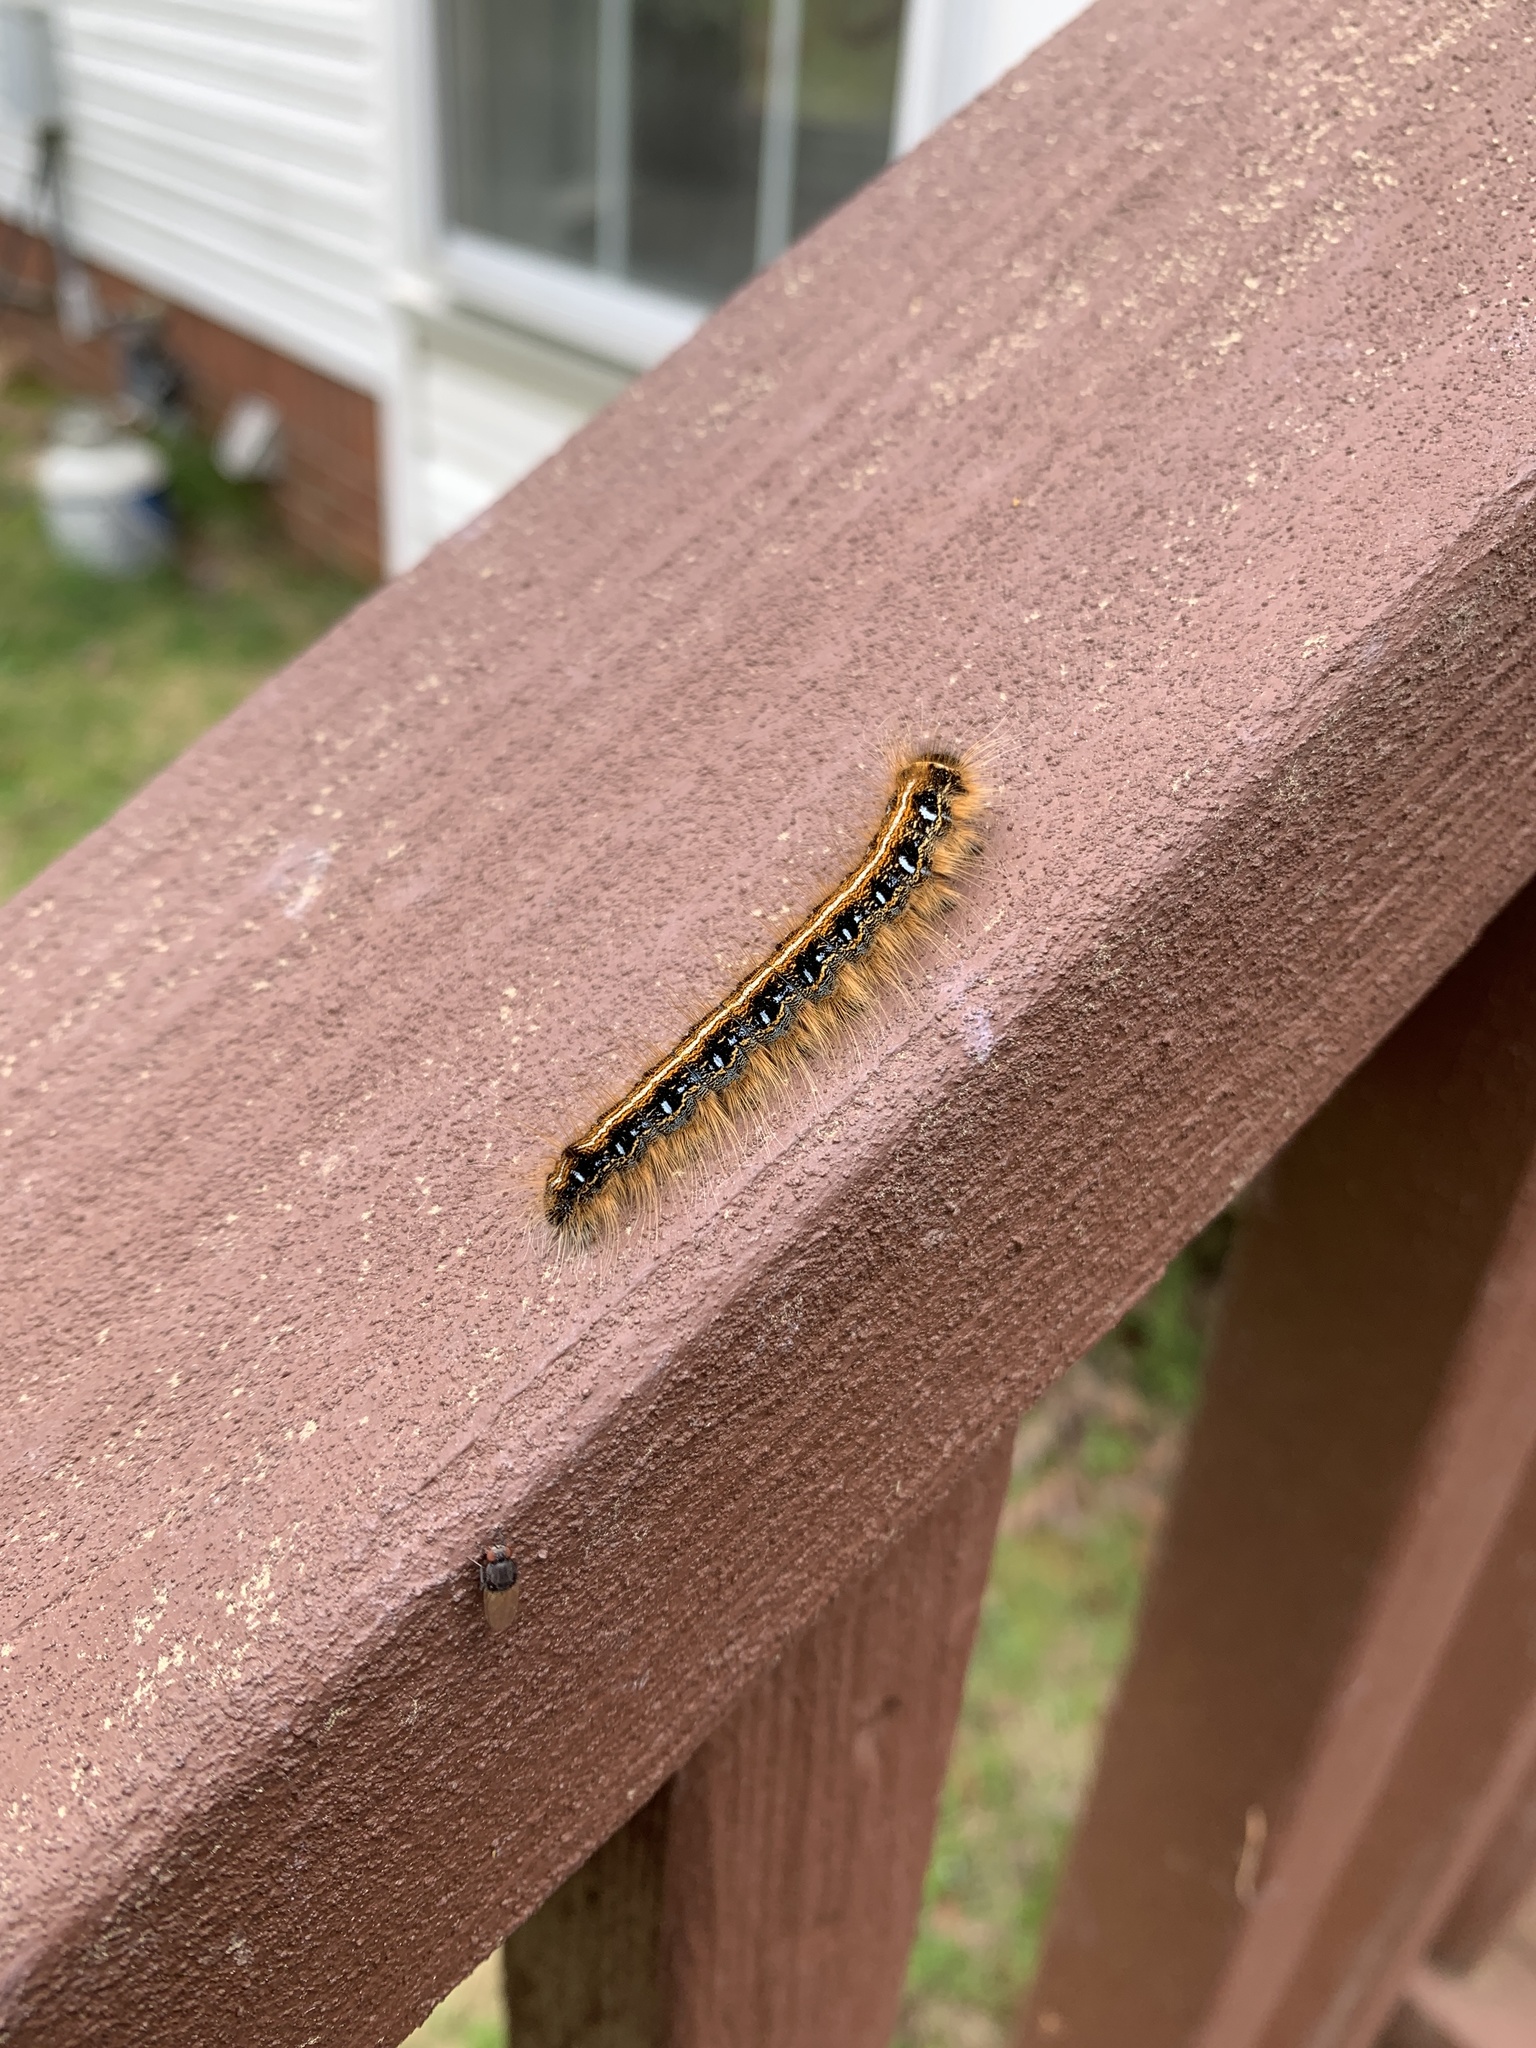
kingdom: Animalia
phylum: Arthropoda
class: Insecta
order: Lepidoptera
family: Lasiocampidae
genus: Malacosoma
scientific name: Malacosoma americana
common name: Eastern tent caterpillar moth
